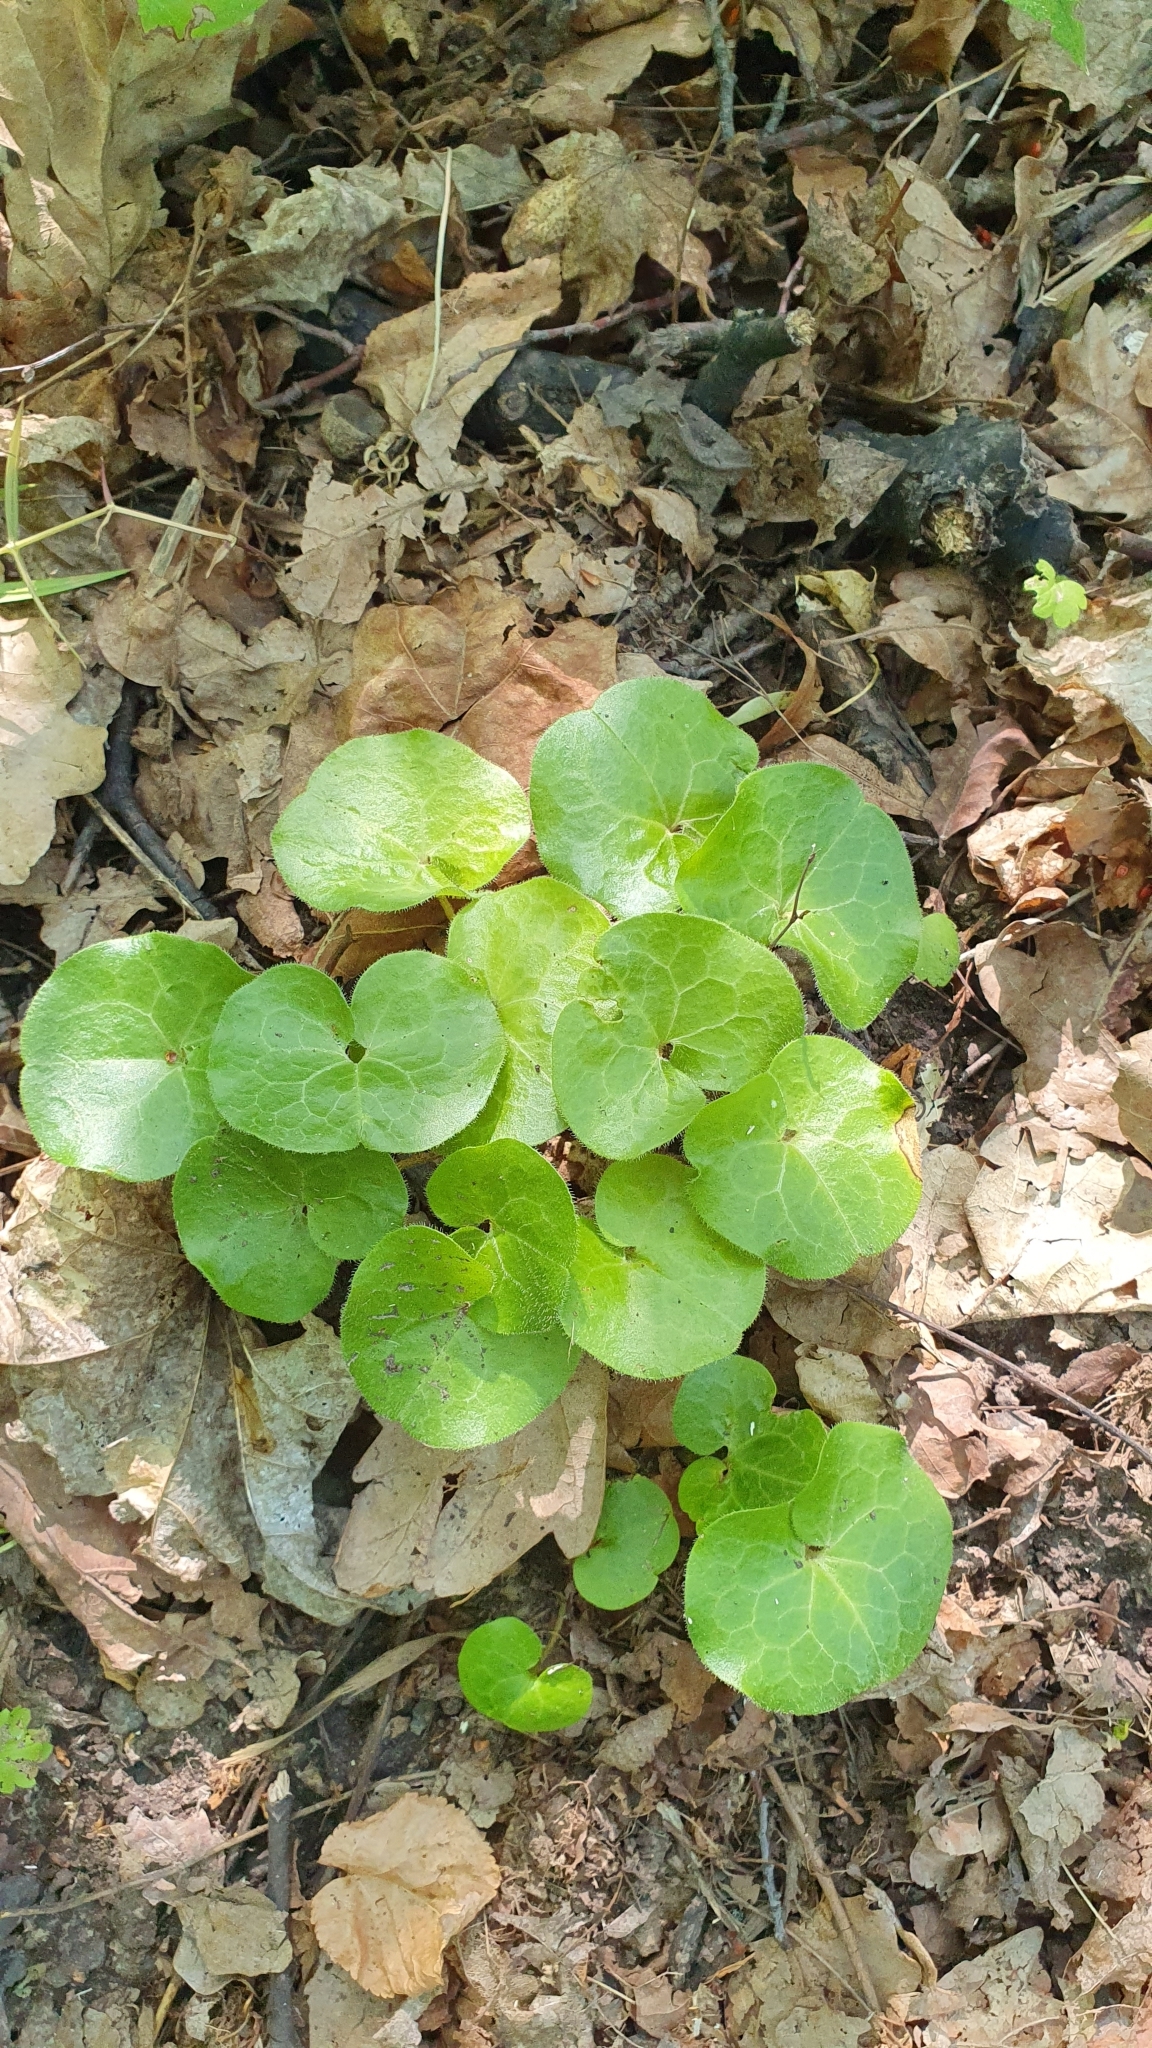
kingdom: Plantae
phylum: Tracheophyta
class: Magnoliopsida
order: Piperales
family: Aristolochiaceae
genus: Asarum
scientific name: Asarum europaeum
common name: Asarabacca
